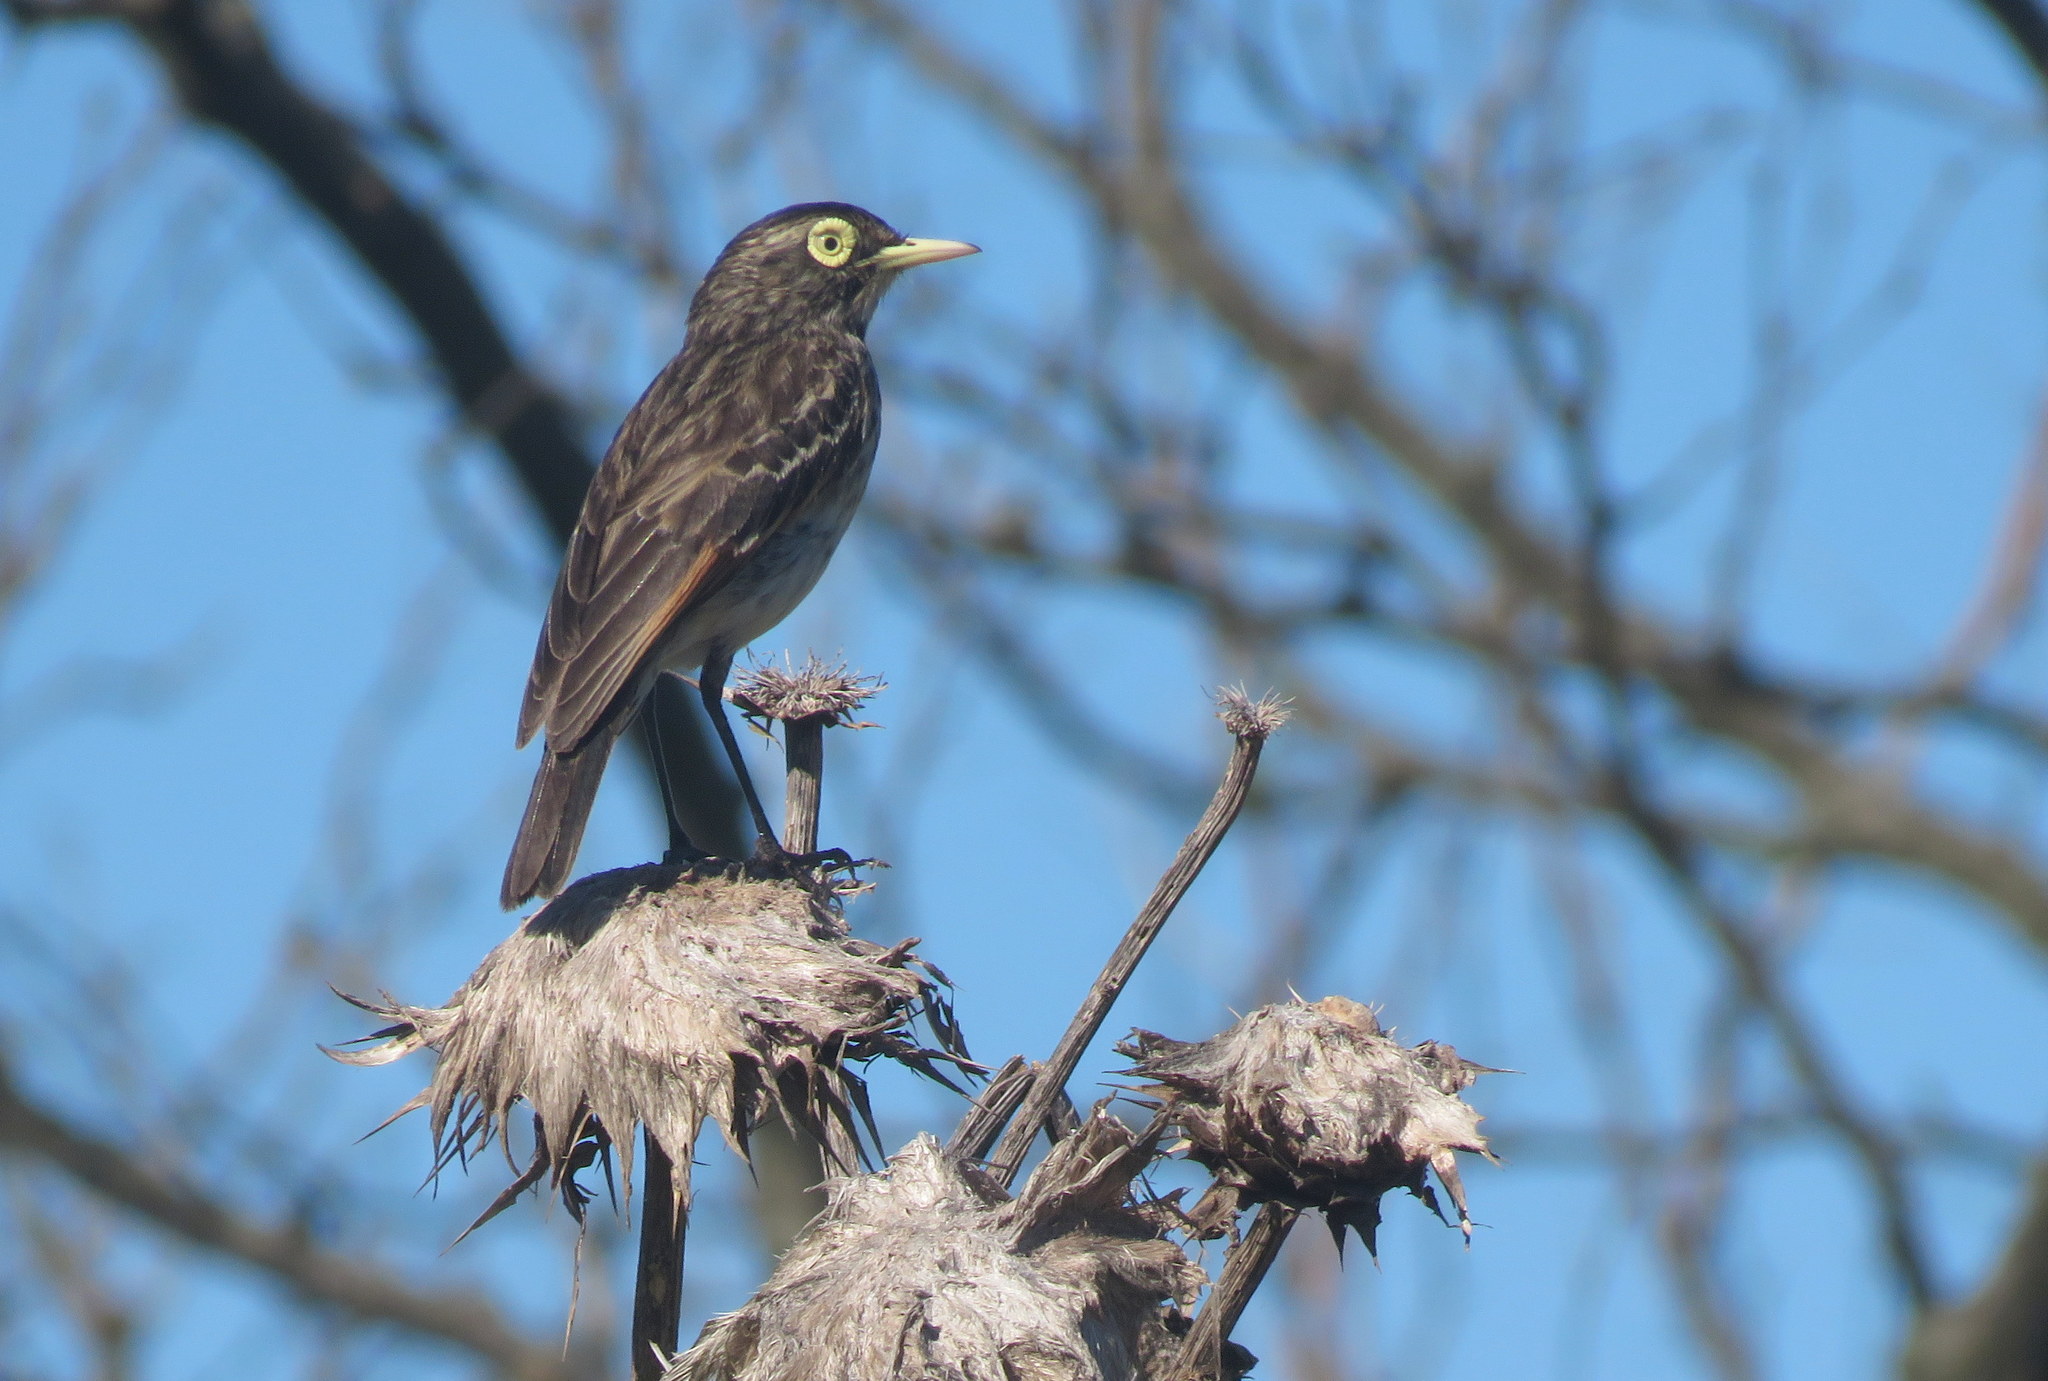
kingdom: Animalia
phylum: Chordata
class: Aves
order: Passeriformes
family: Tyrannidae
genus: Hymenops
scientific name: Hymenops perspicillatus
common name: Spectacled tyrant
